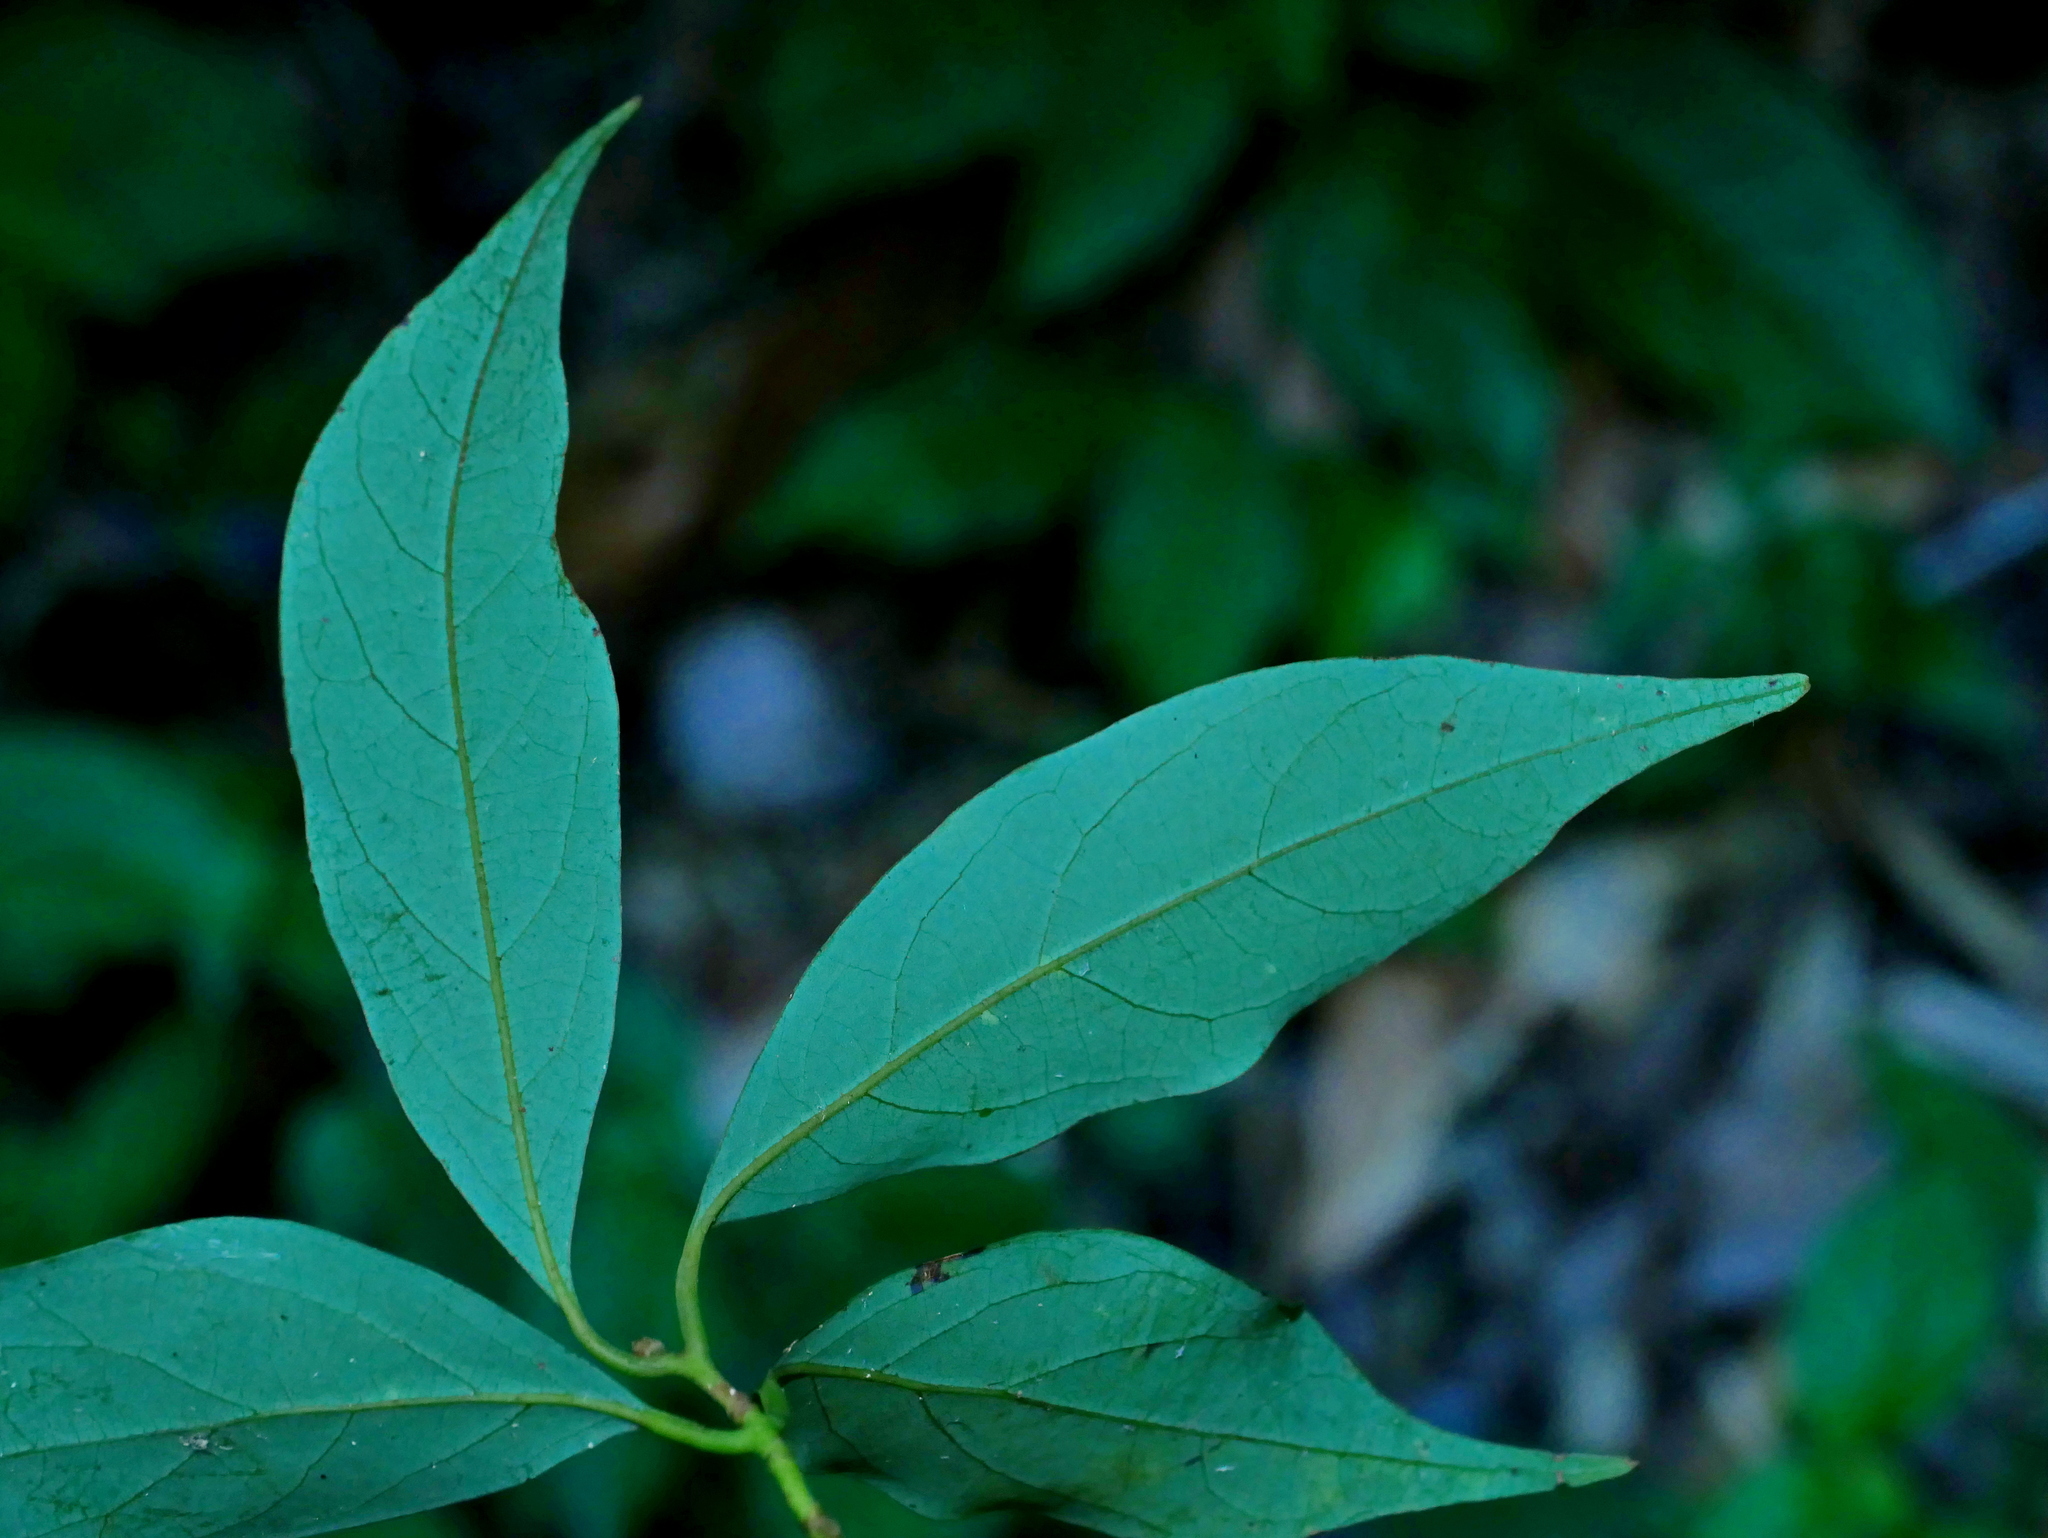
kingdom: Plantae
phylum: Tracheophyta
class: Magnoliopsida
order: Laurales
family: Lauraceae
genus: Cinnamomum
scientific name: Cinnamomum philippinense
